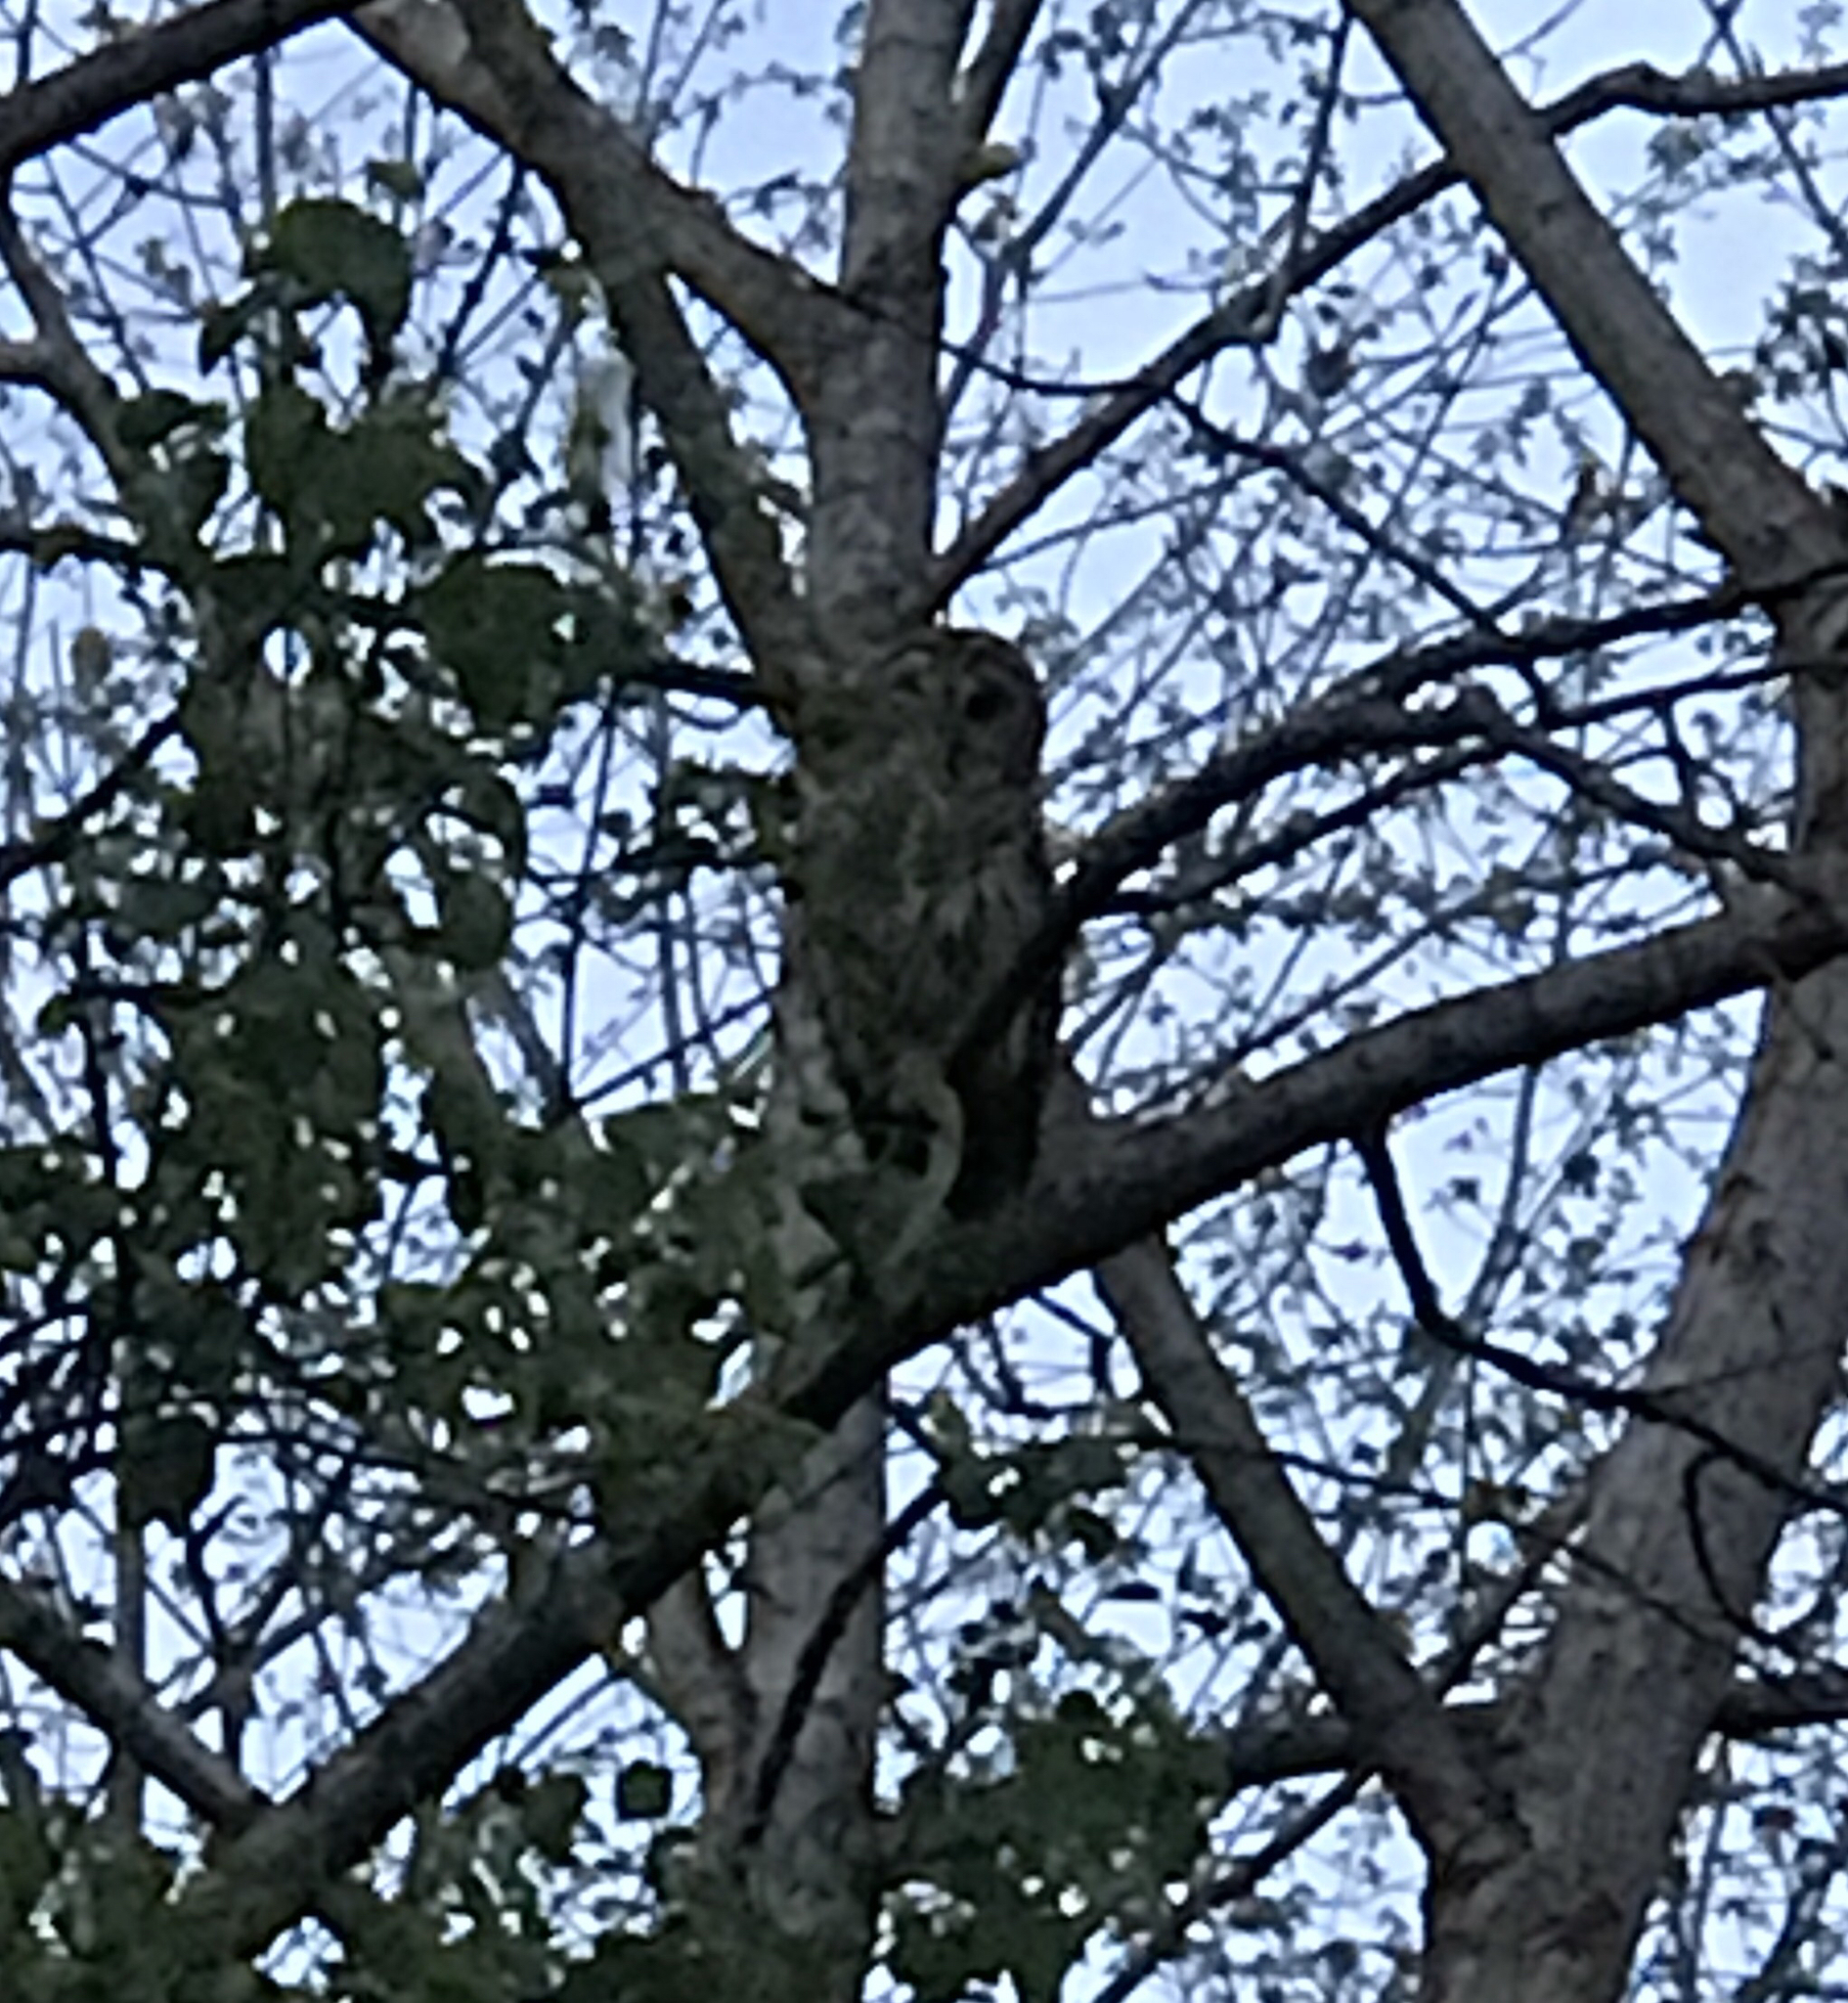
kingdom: Animalia
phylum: Chordata
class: Aves
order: Strigiformes
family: Strigidae
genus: Strix
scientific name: Strix varia
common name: Barred owl
